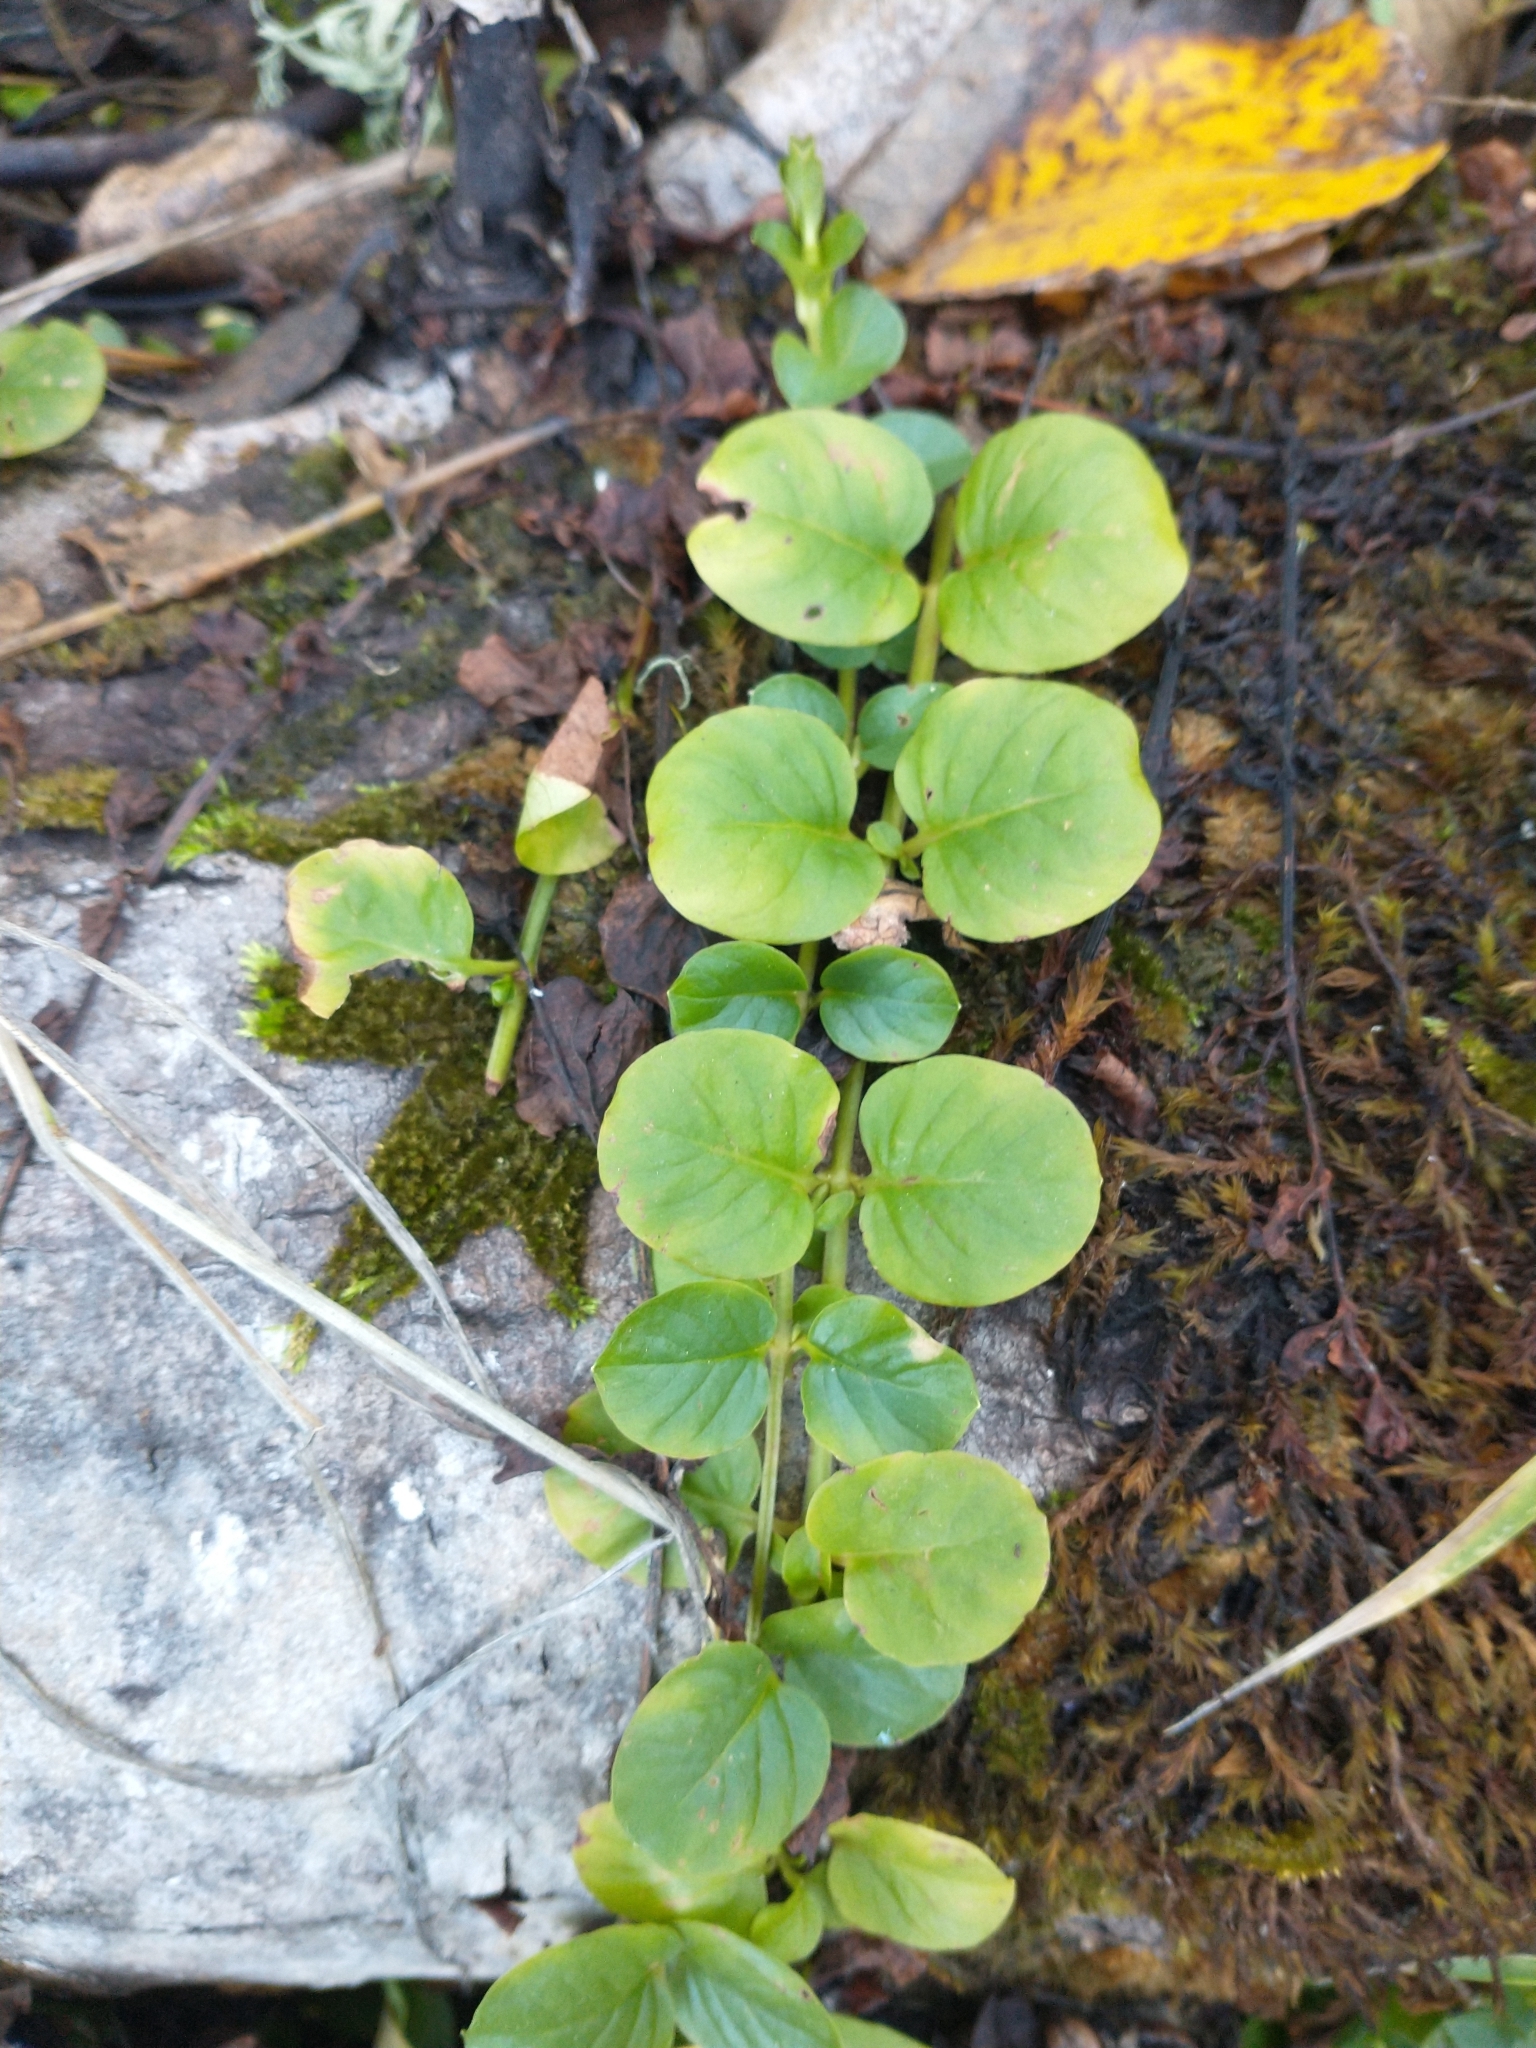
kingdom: Plantae
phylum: Tracheophyta
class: Magnoliopsida
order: Ericales
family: Primulaceae
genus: Lysimachia
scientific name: Lysimachia nummularia
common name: Moneywort
